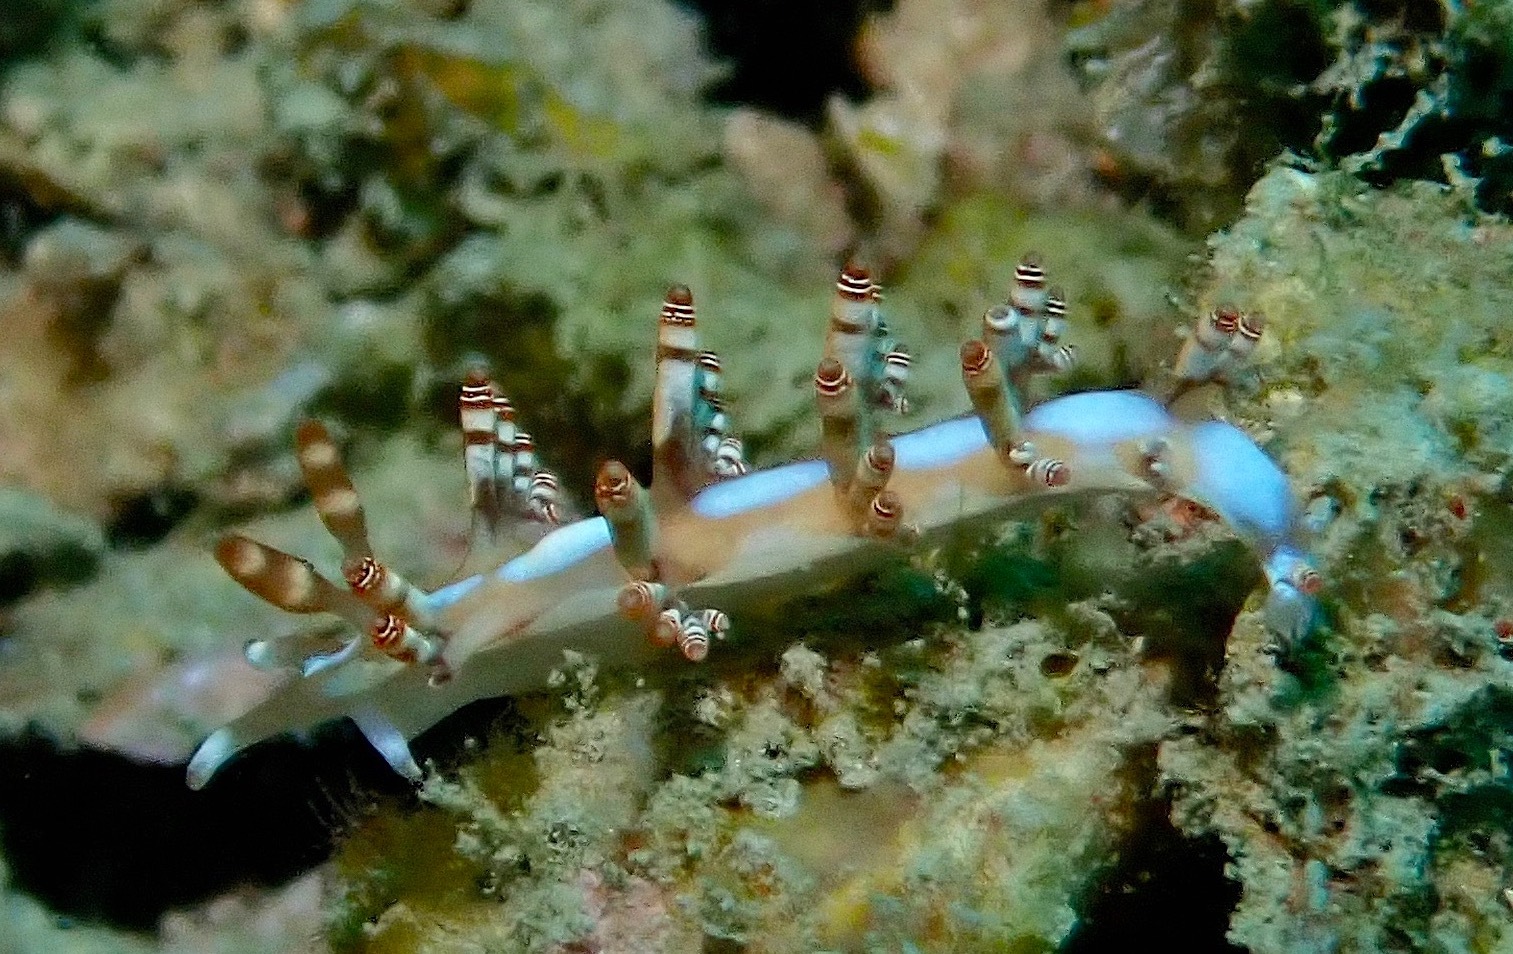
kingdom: Animalia
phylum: Mollusca
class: Gastropoda
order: Nudibranchia
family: Samlidae
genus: Samla
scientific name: Samla bilas
